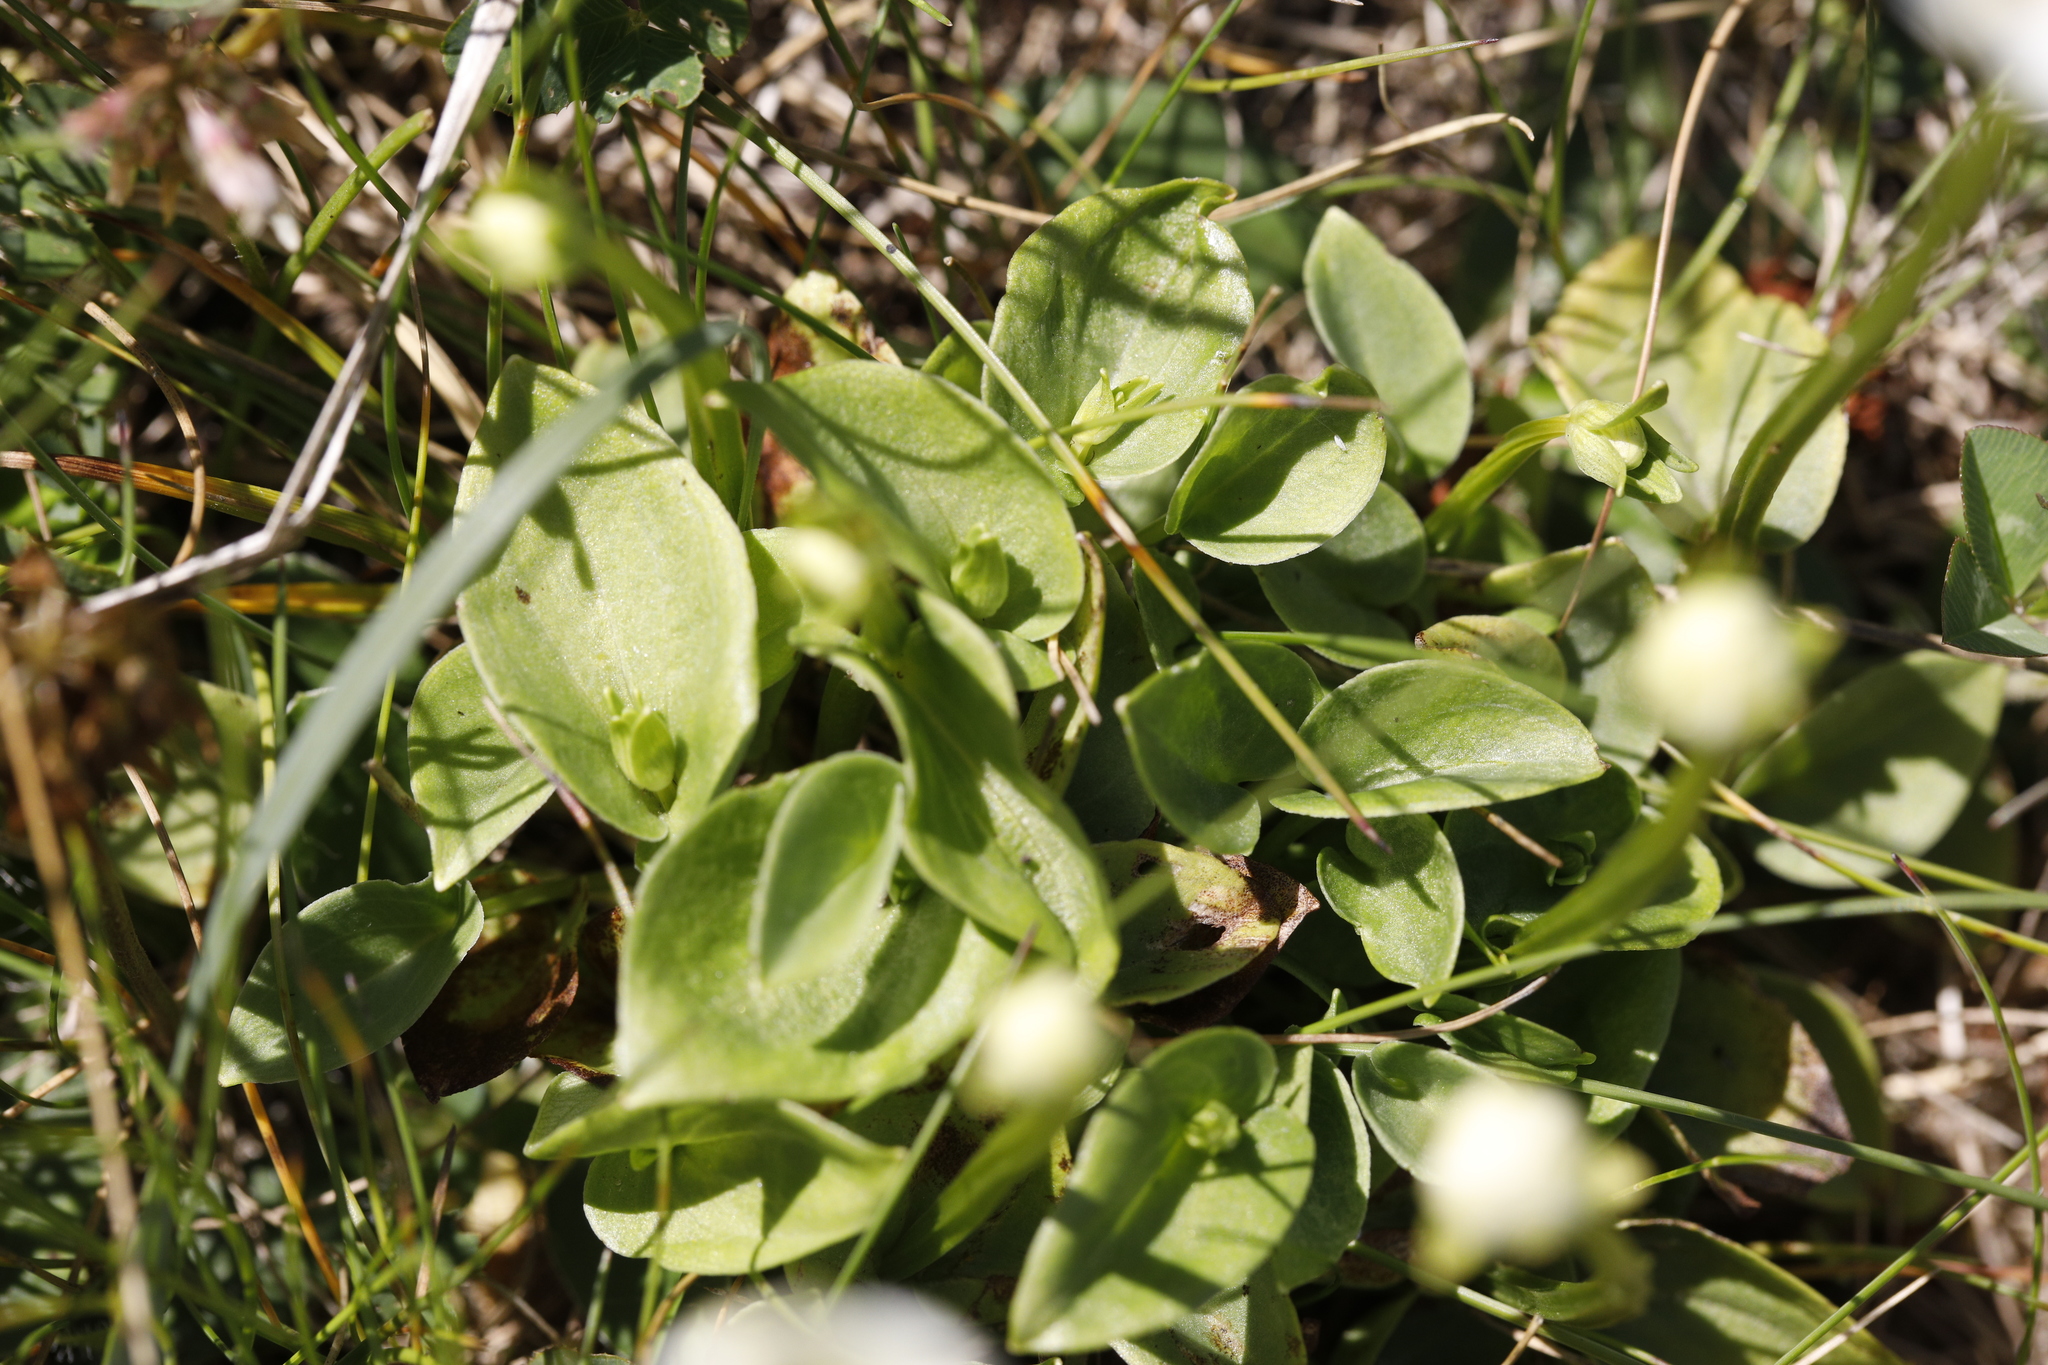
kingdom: Plantae
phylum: Tracheophyta
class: Magnoliopsida
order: Celastrales
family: Parnassiaceae
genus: Parnassia
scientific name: Parnassia palustris
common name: Grass-of-parnassus
